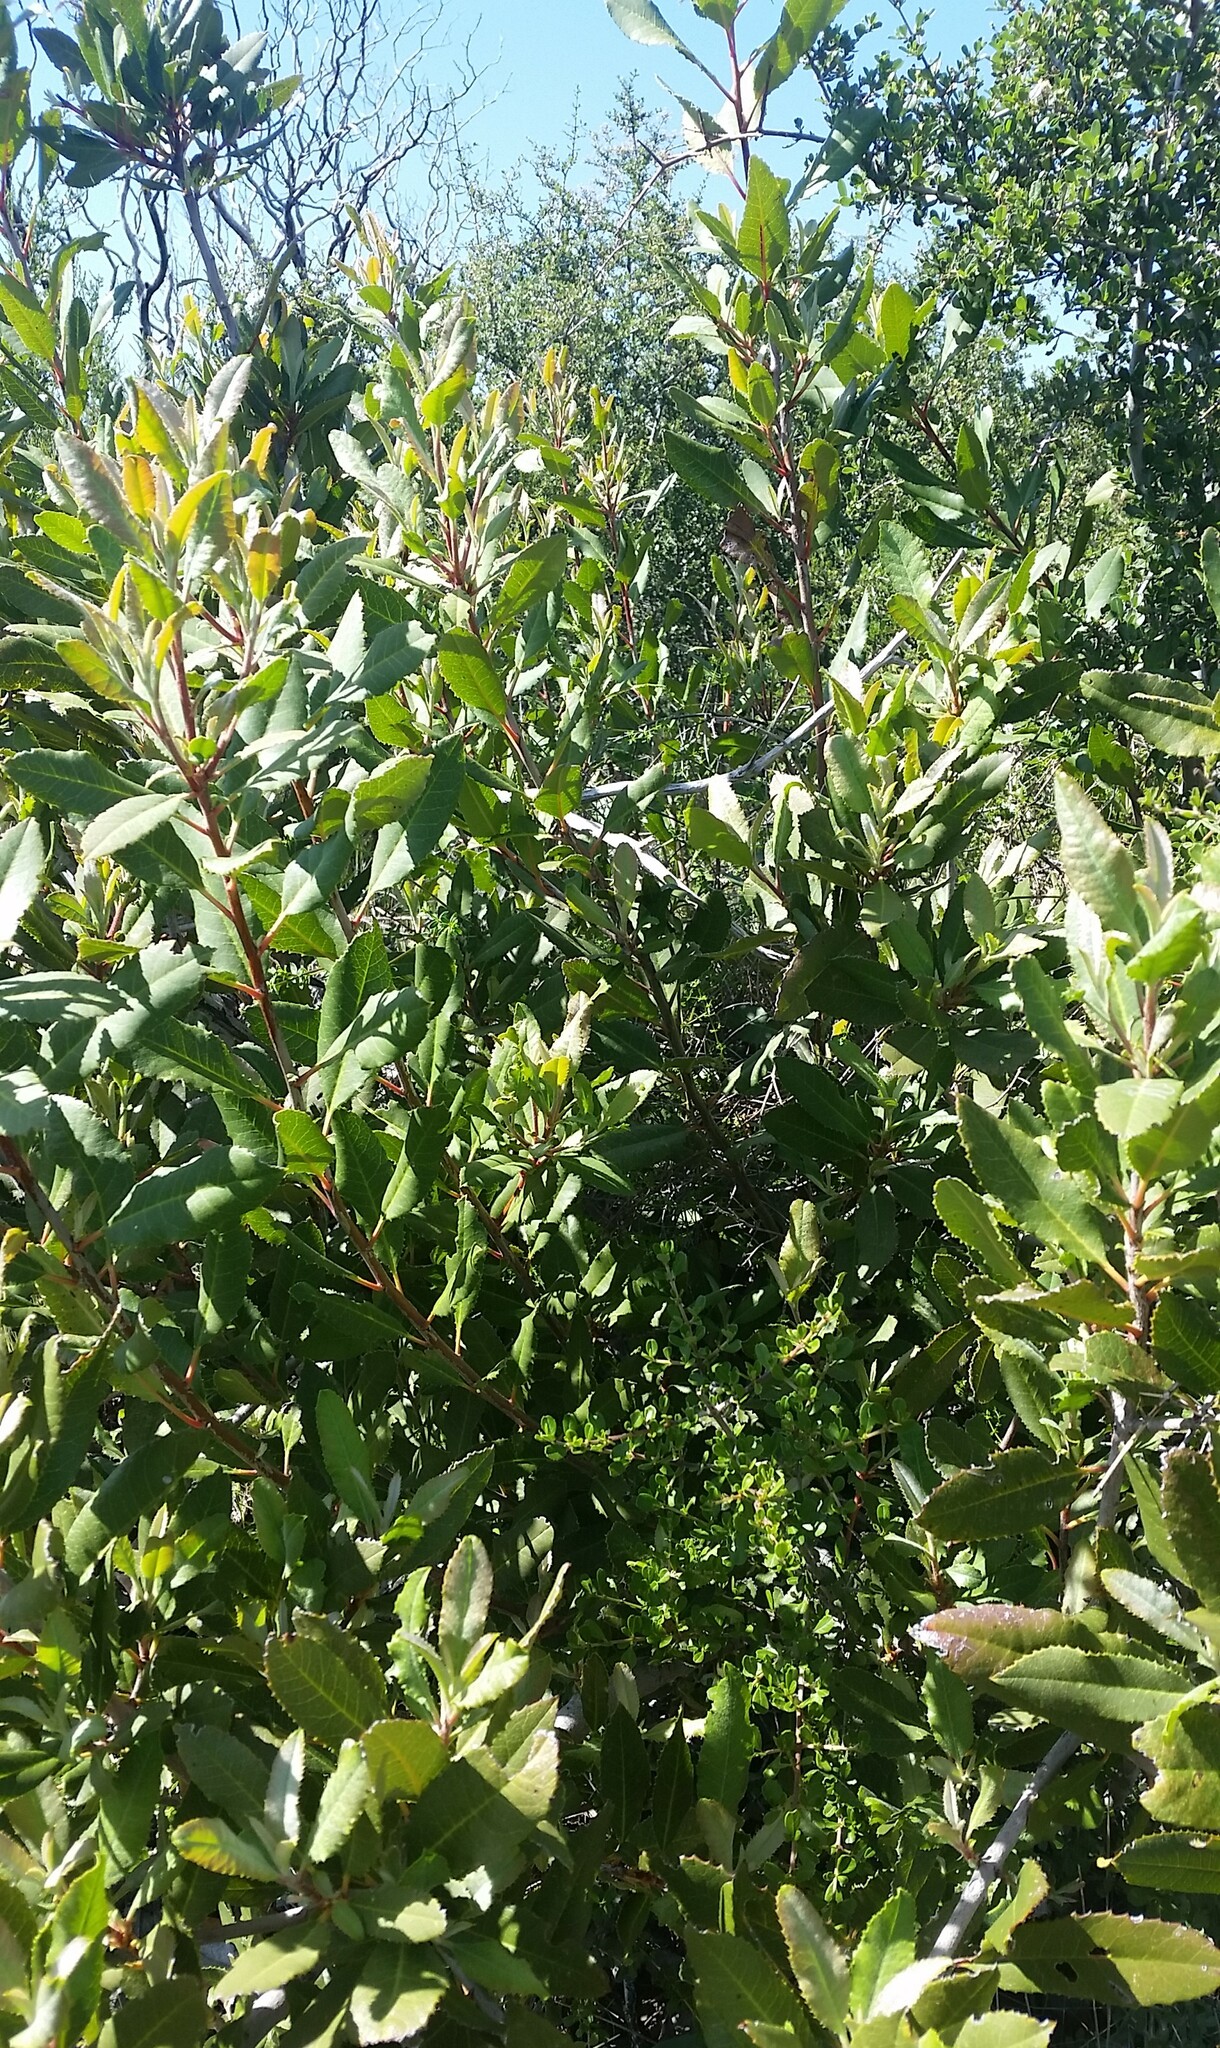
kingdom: Plantae
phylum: Tracheophyta
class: Magnoliopsida
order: Rosales
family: Rosaceae
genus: Heteromeles
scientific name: Heteromeles arbutifolia
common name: California-holly
